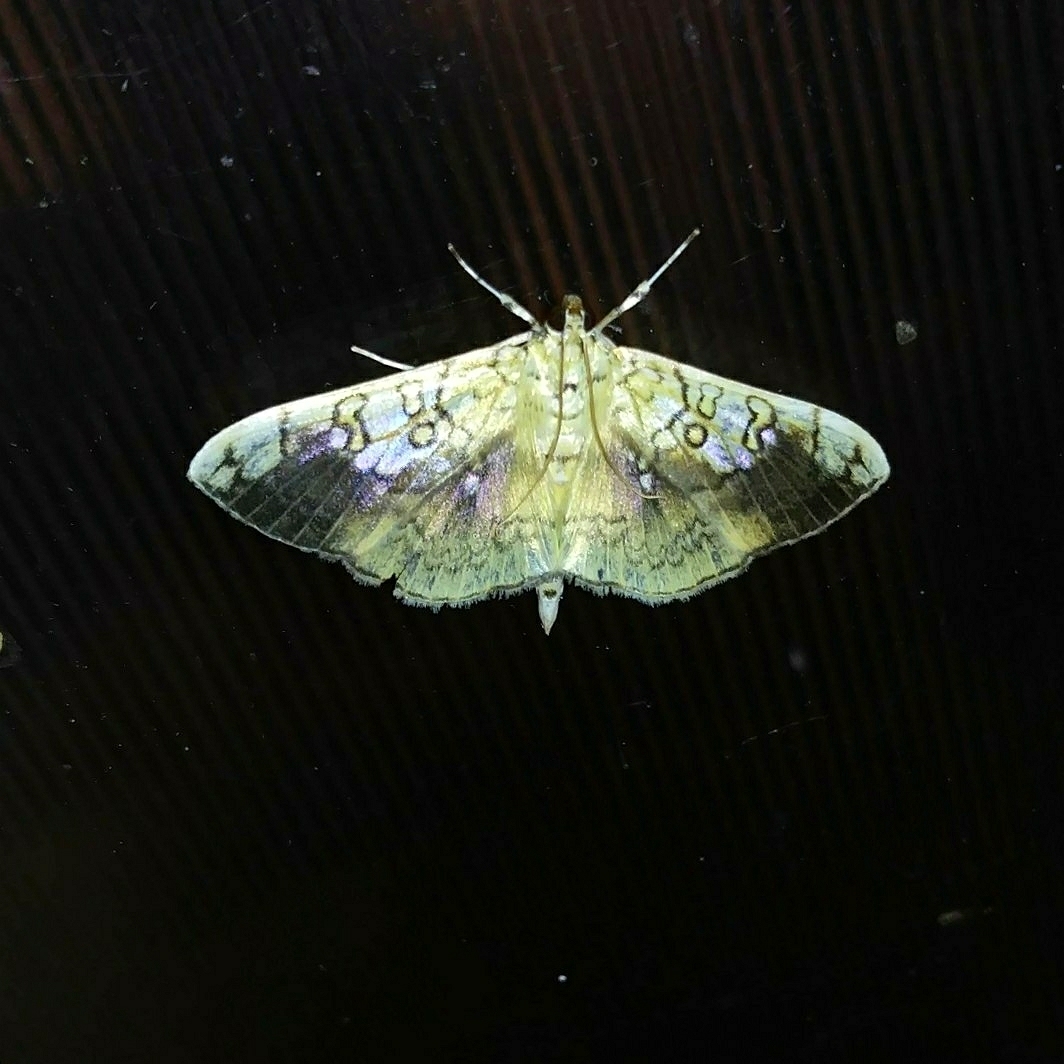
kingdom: Animalia
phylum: Arthropoda
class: Insecta
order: Lepidoptera
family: Crambidae
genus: Pantographa
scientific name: Pantographa limata
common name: Basswood leafroller moth
